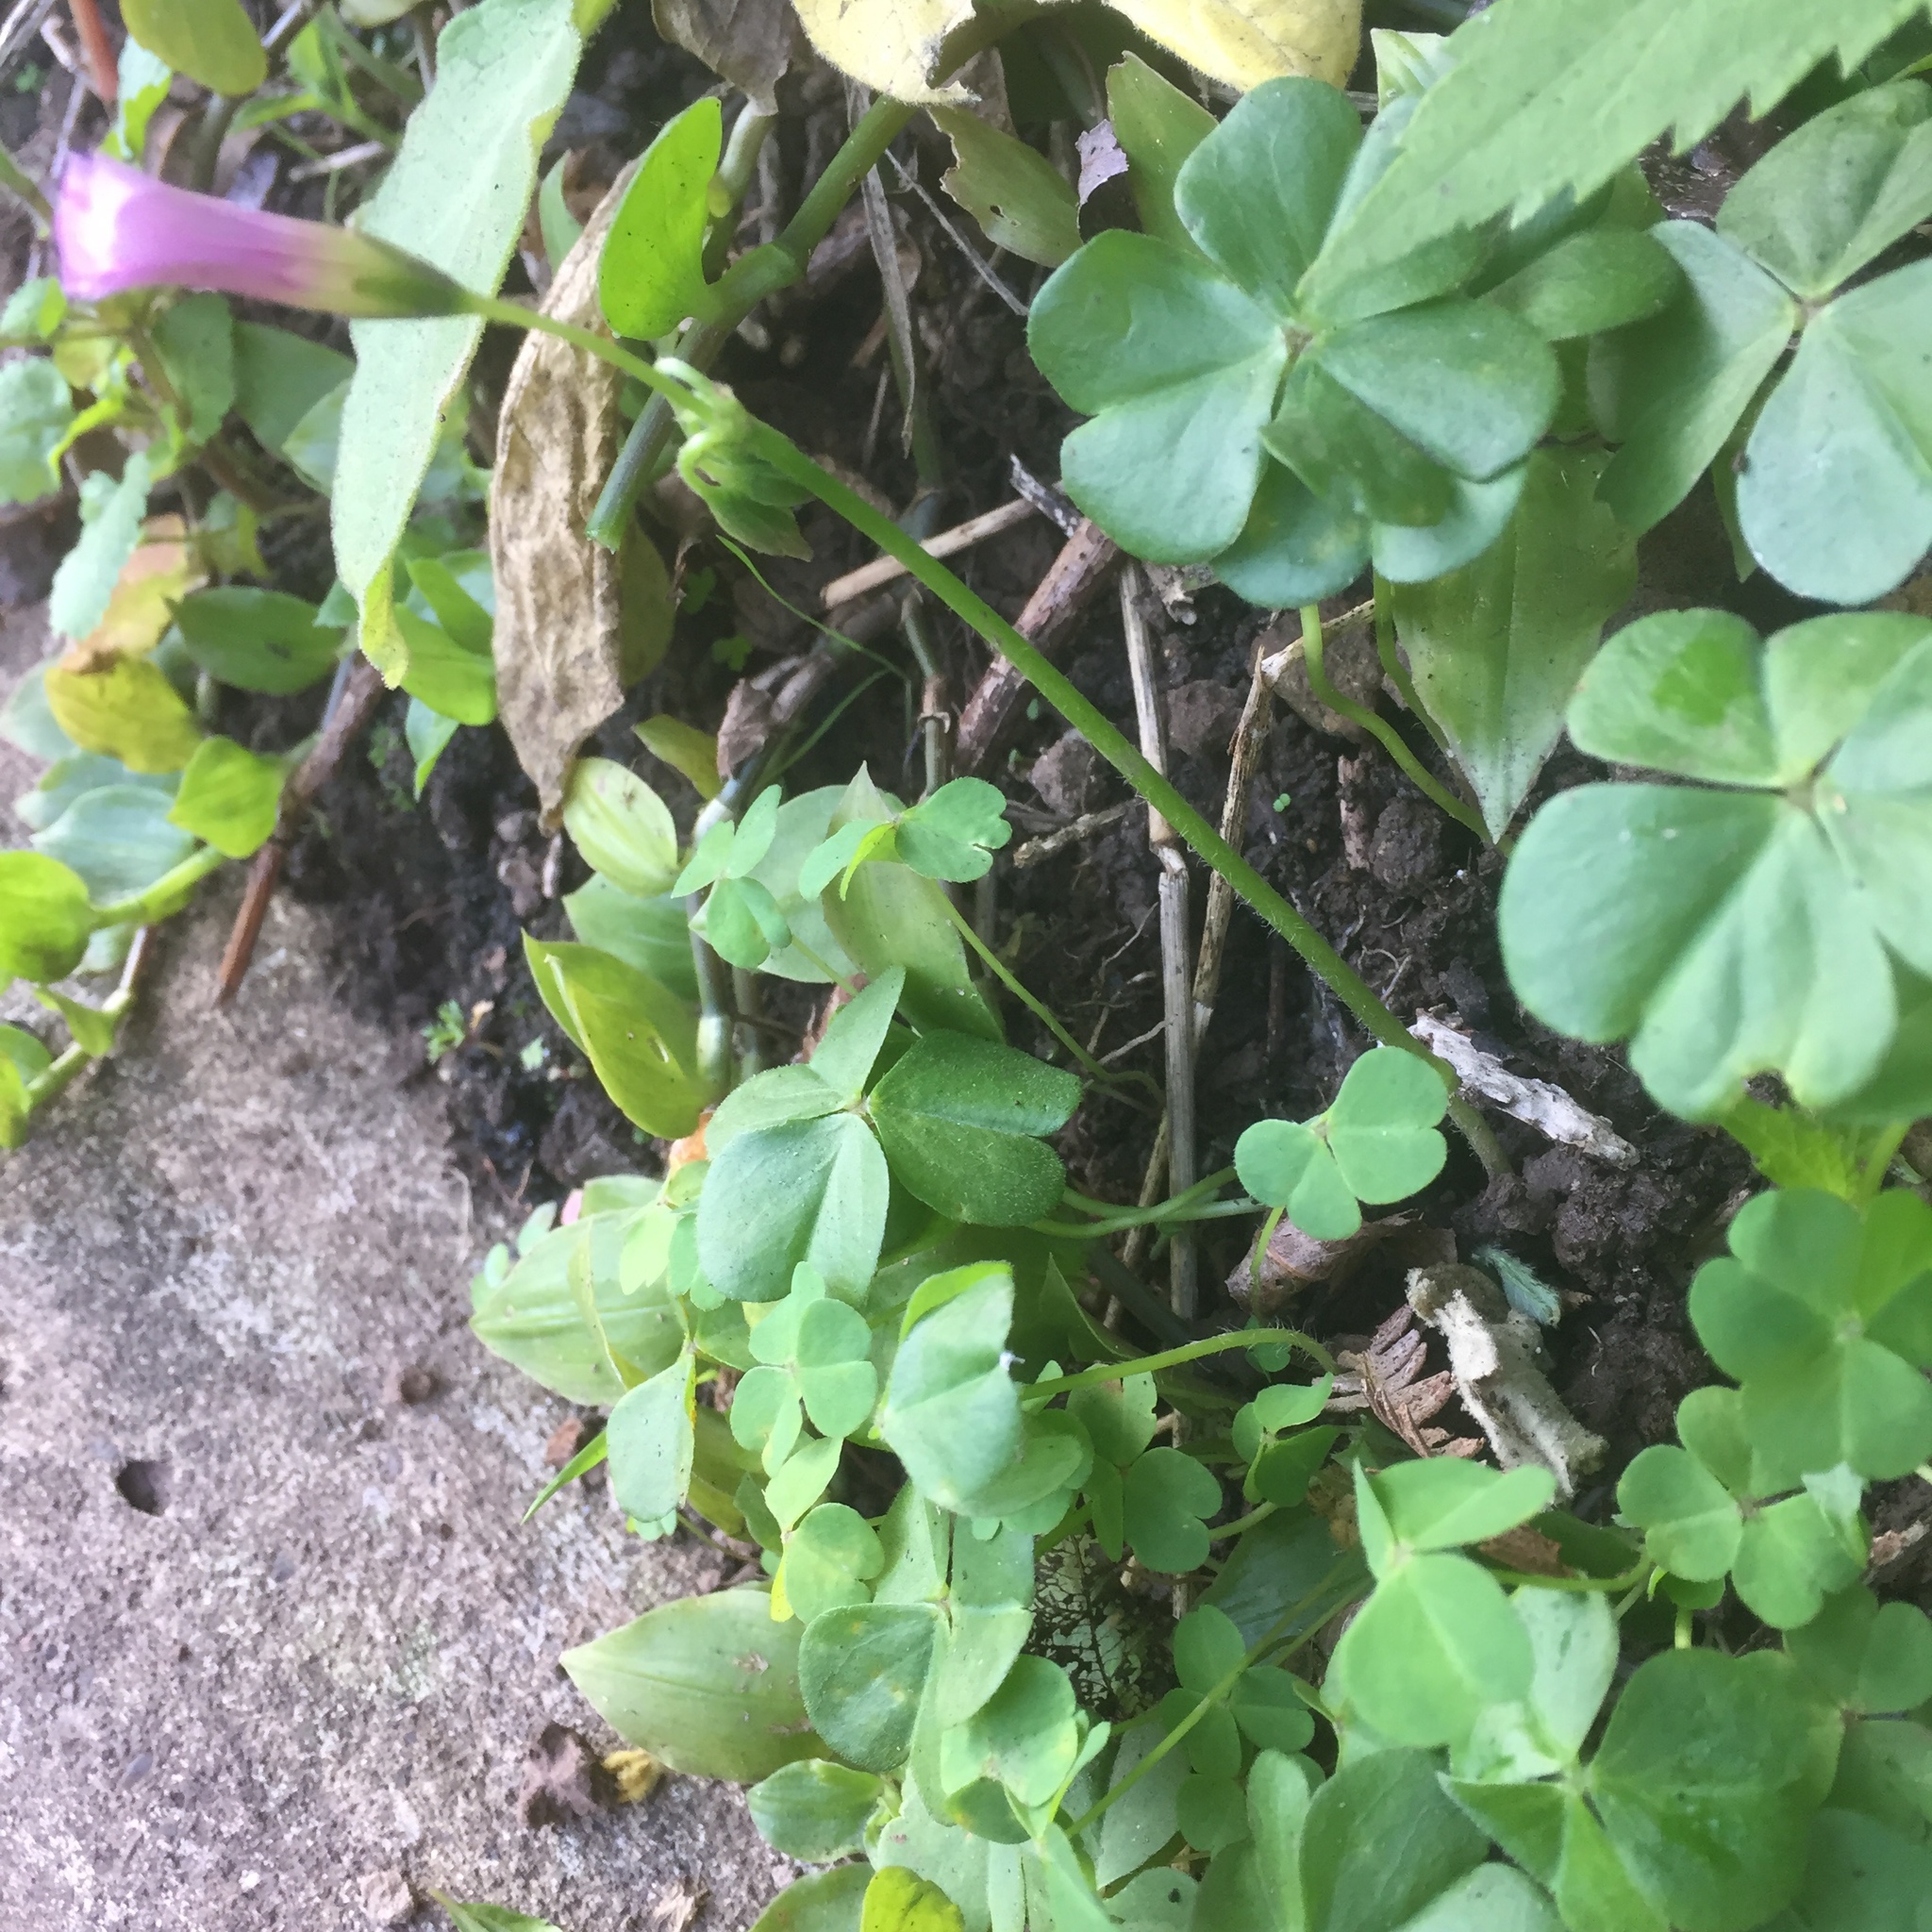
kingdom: Plantae
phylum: Tracheophyta
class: Magnoliopsida
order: Oxalidales
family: Oxalidaceae
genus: Oxalis
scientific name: Oxalis debilis
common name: Large-flowered pink-sorrel
